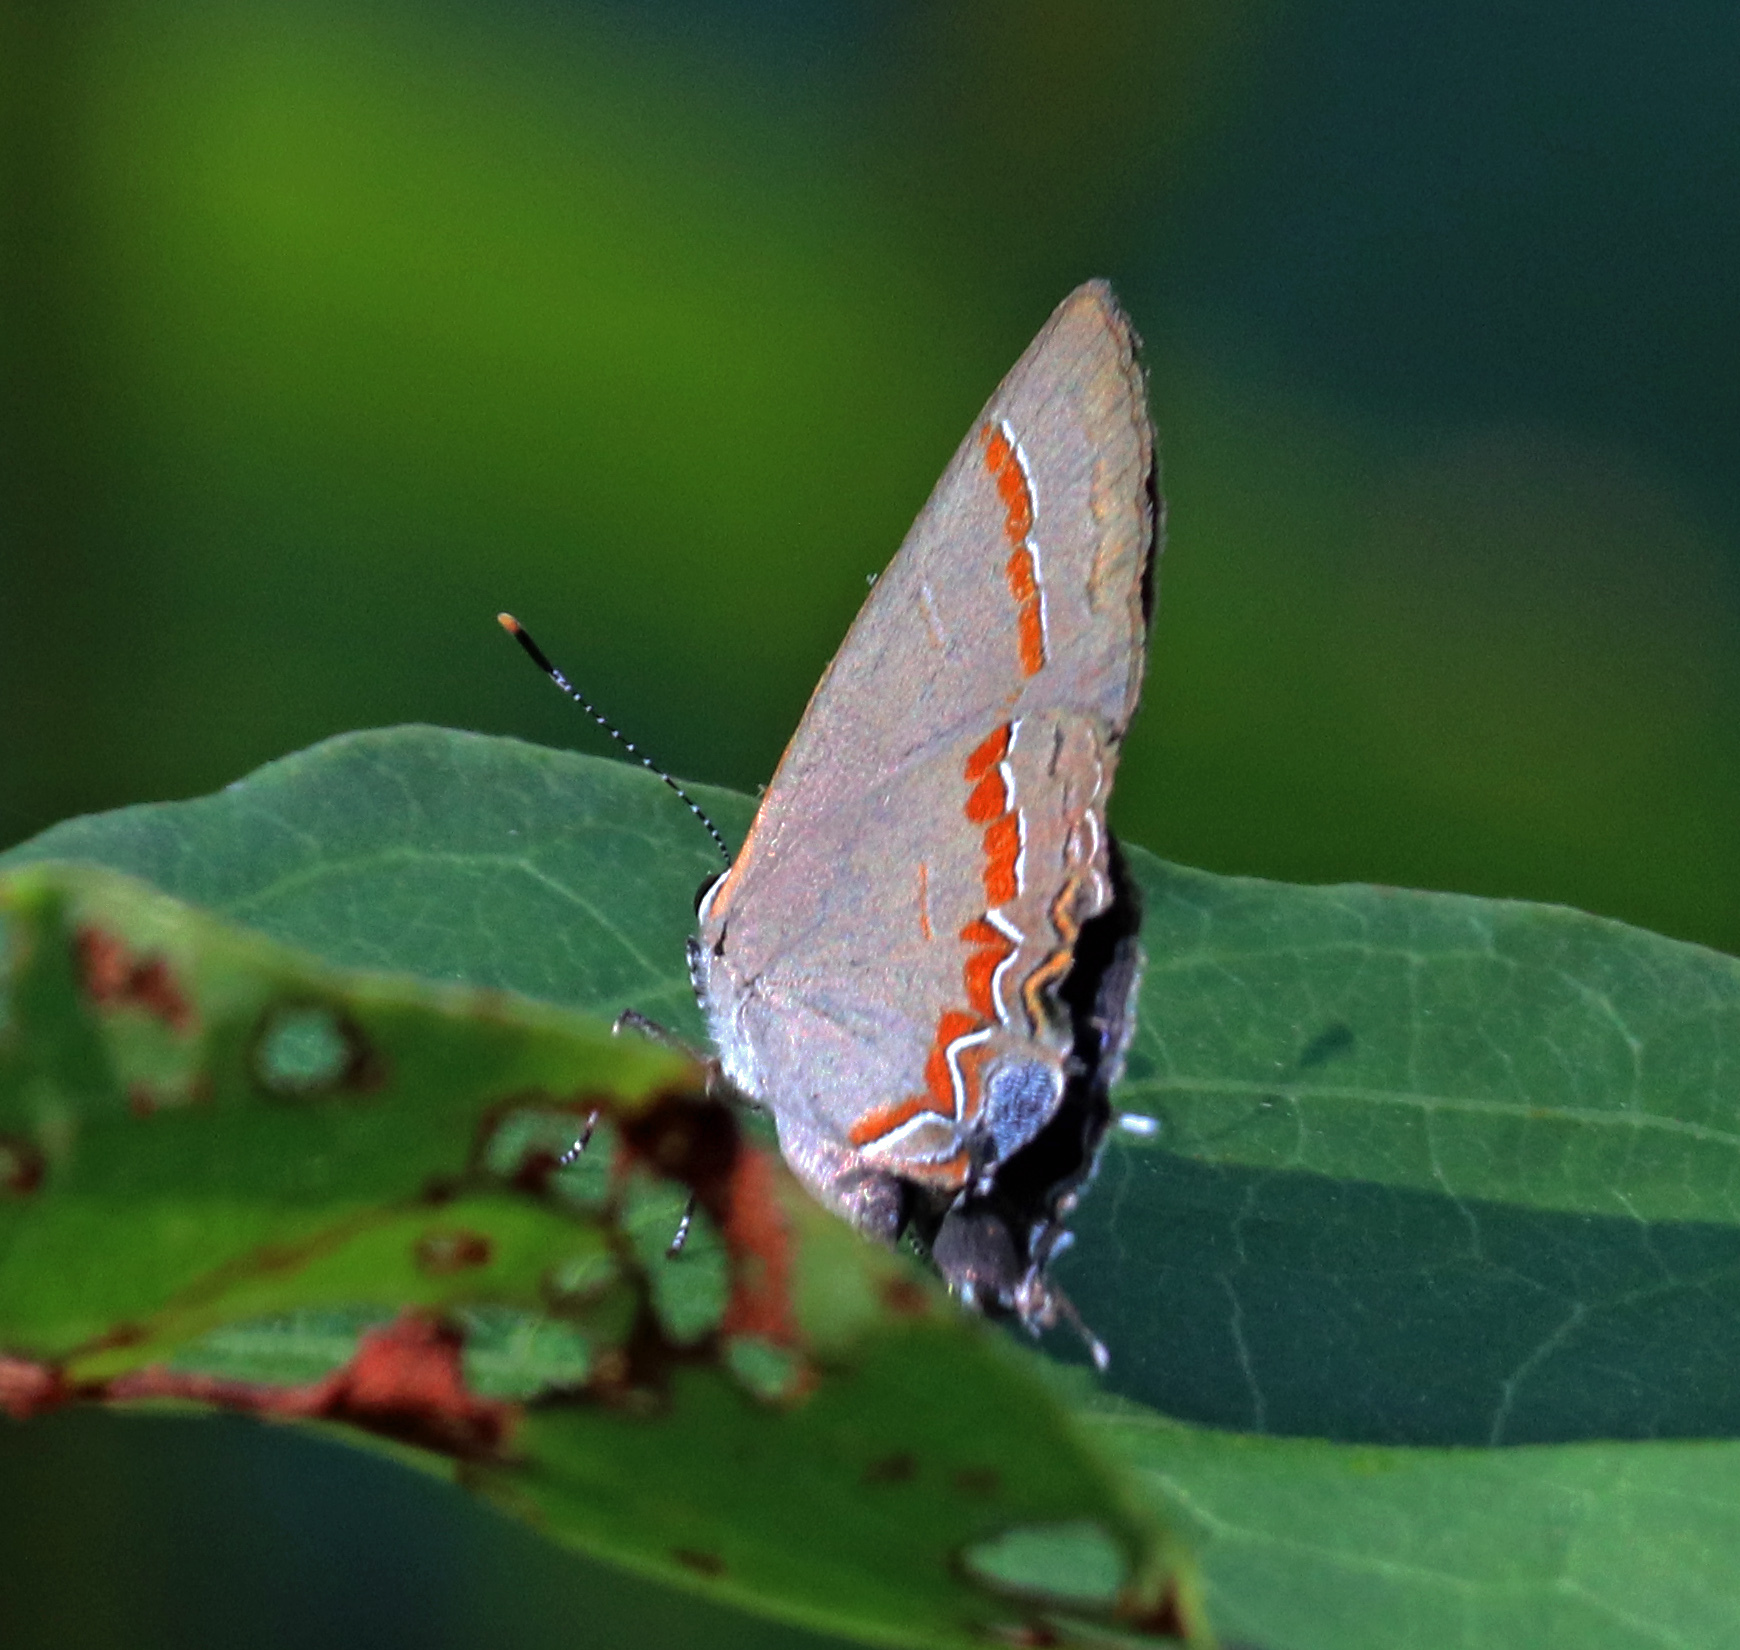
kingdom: Animalia
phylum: Arthropoda
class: Insecta
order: Lepidoptera
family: Lycaenidae
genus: Calycopis
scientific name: Calycopis cecrops
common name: Red-banded hairstreak
